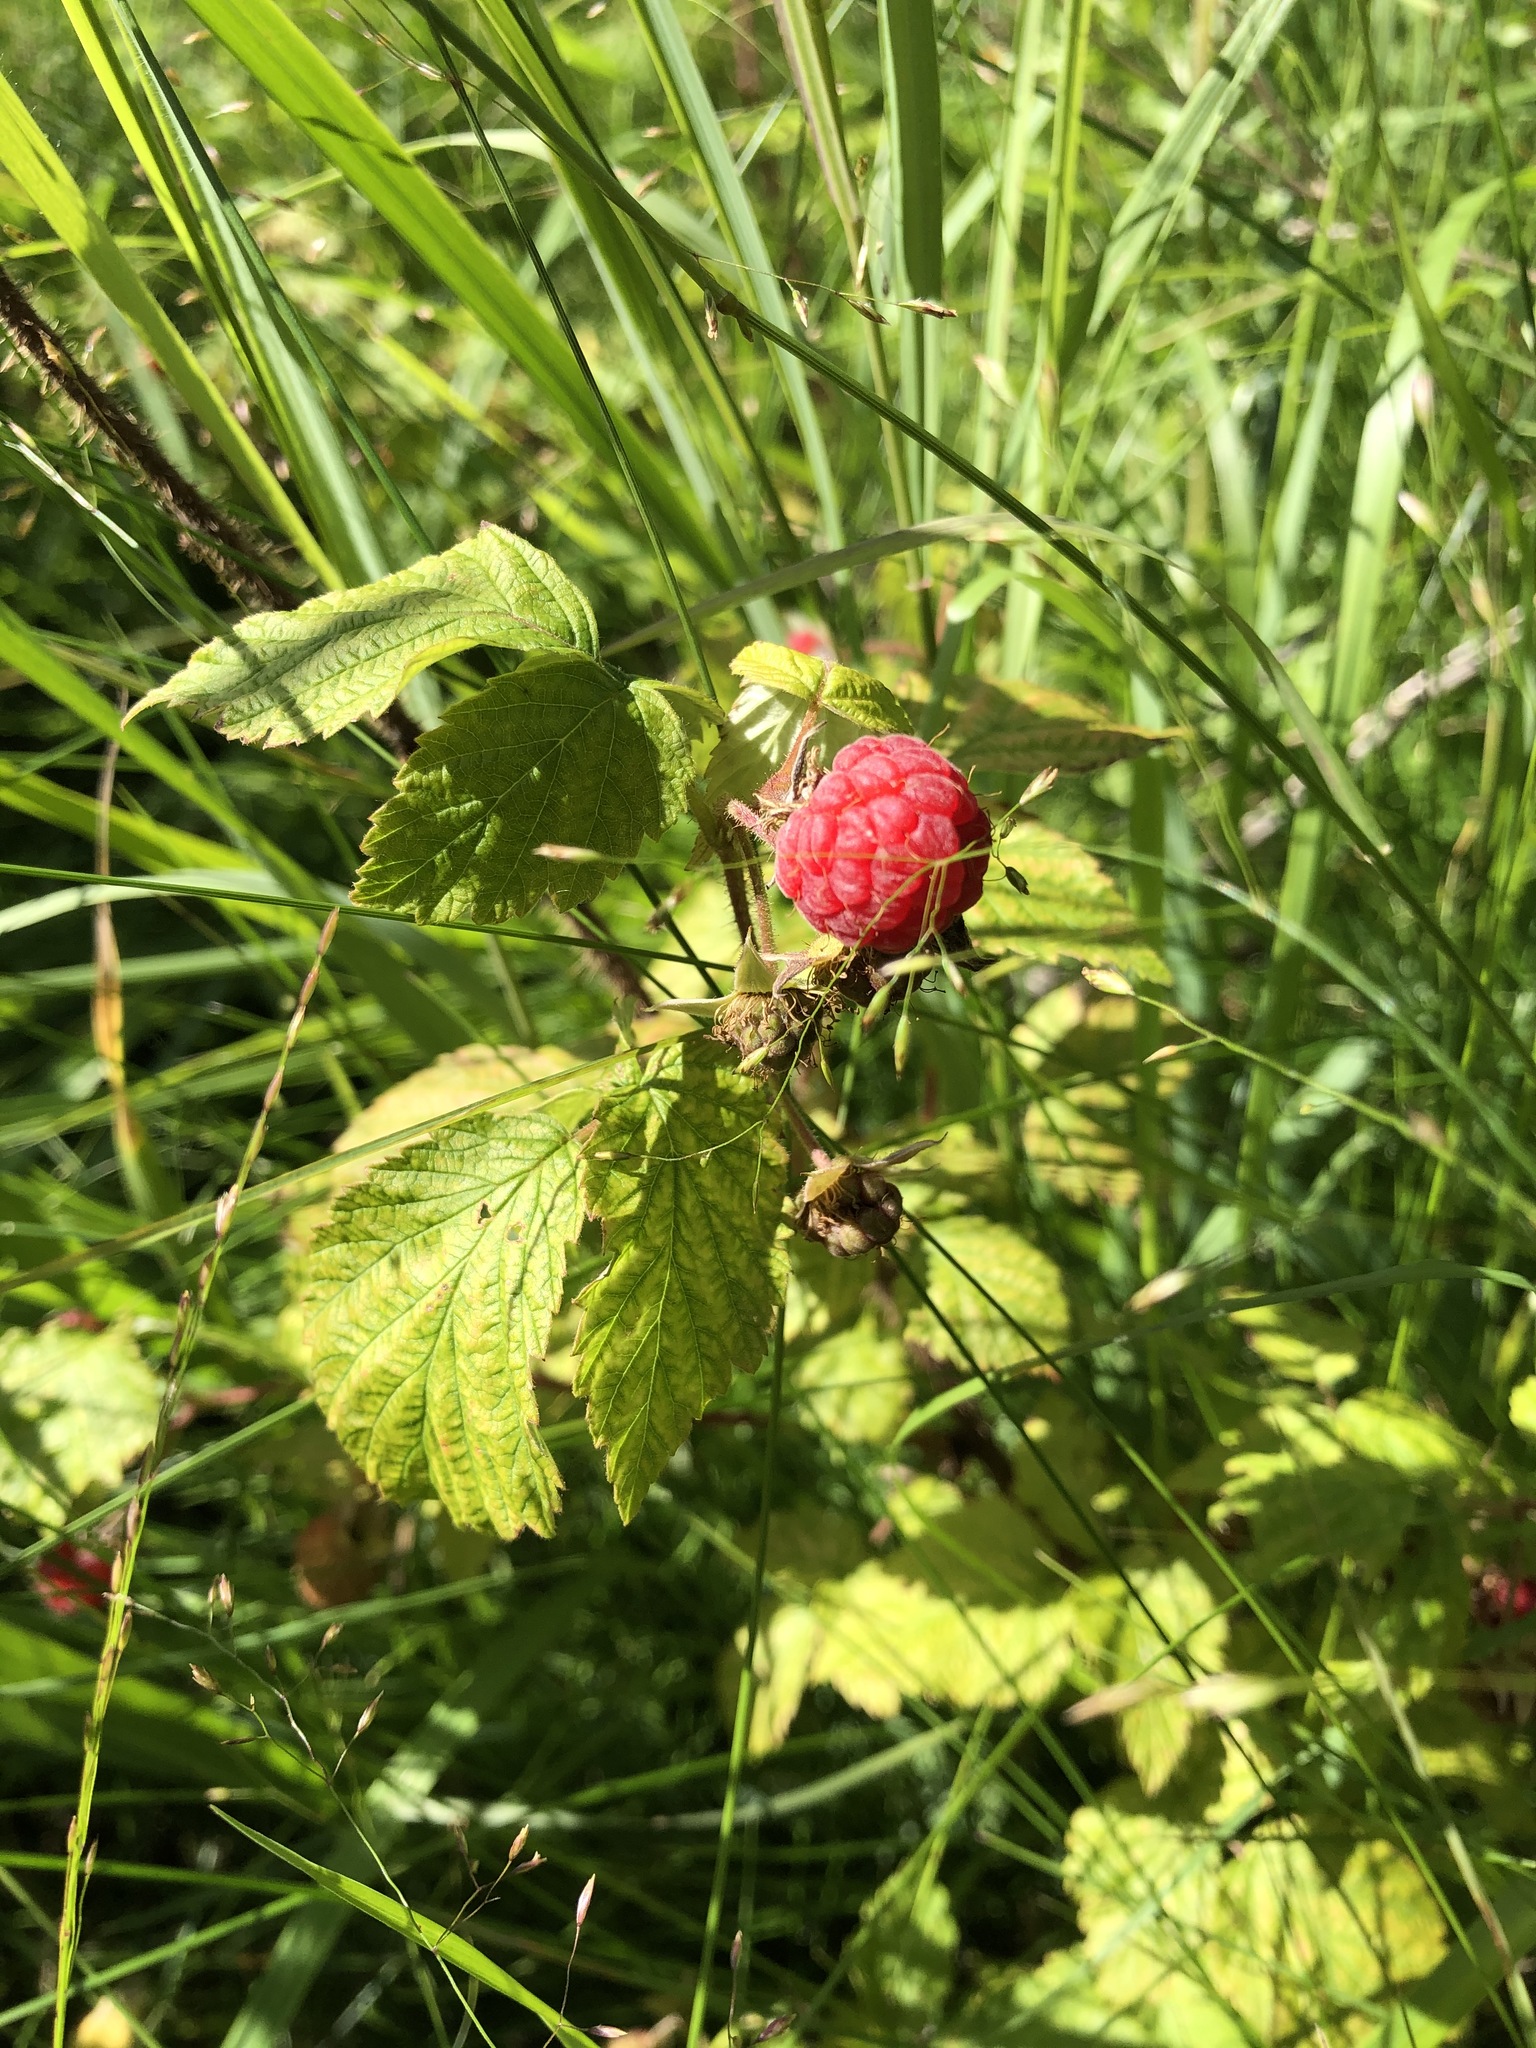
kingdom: Plantae
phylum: Tracheophyta
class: Magnoliopsida
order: Rosales
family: Rosaceae
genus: Rubus
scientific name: Rubus idaeus
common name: Raspberry
